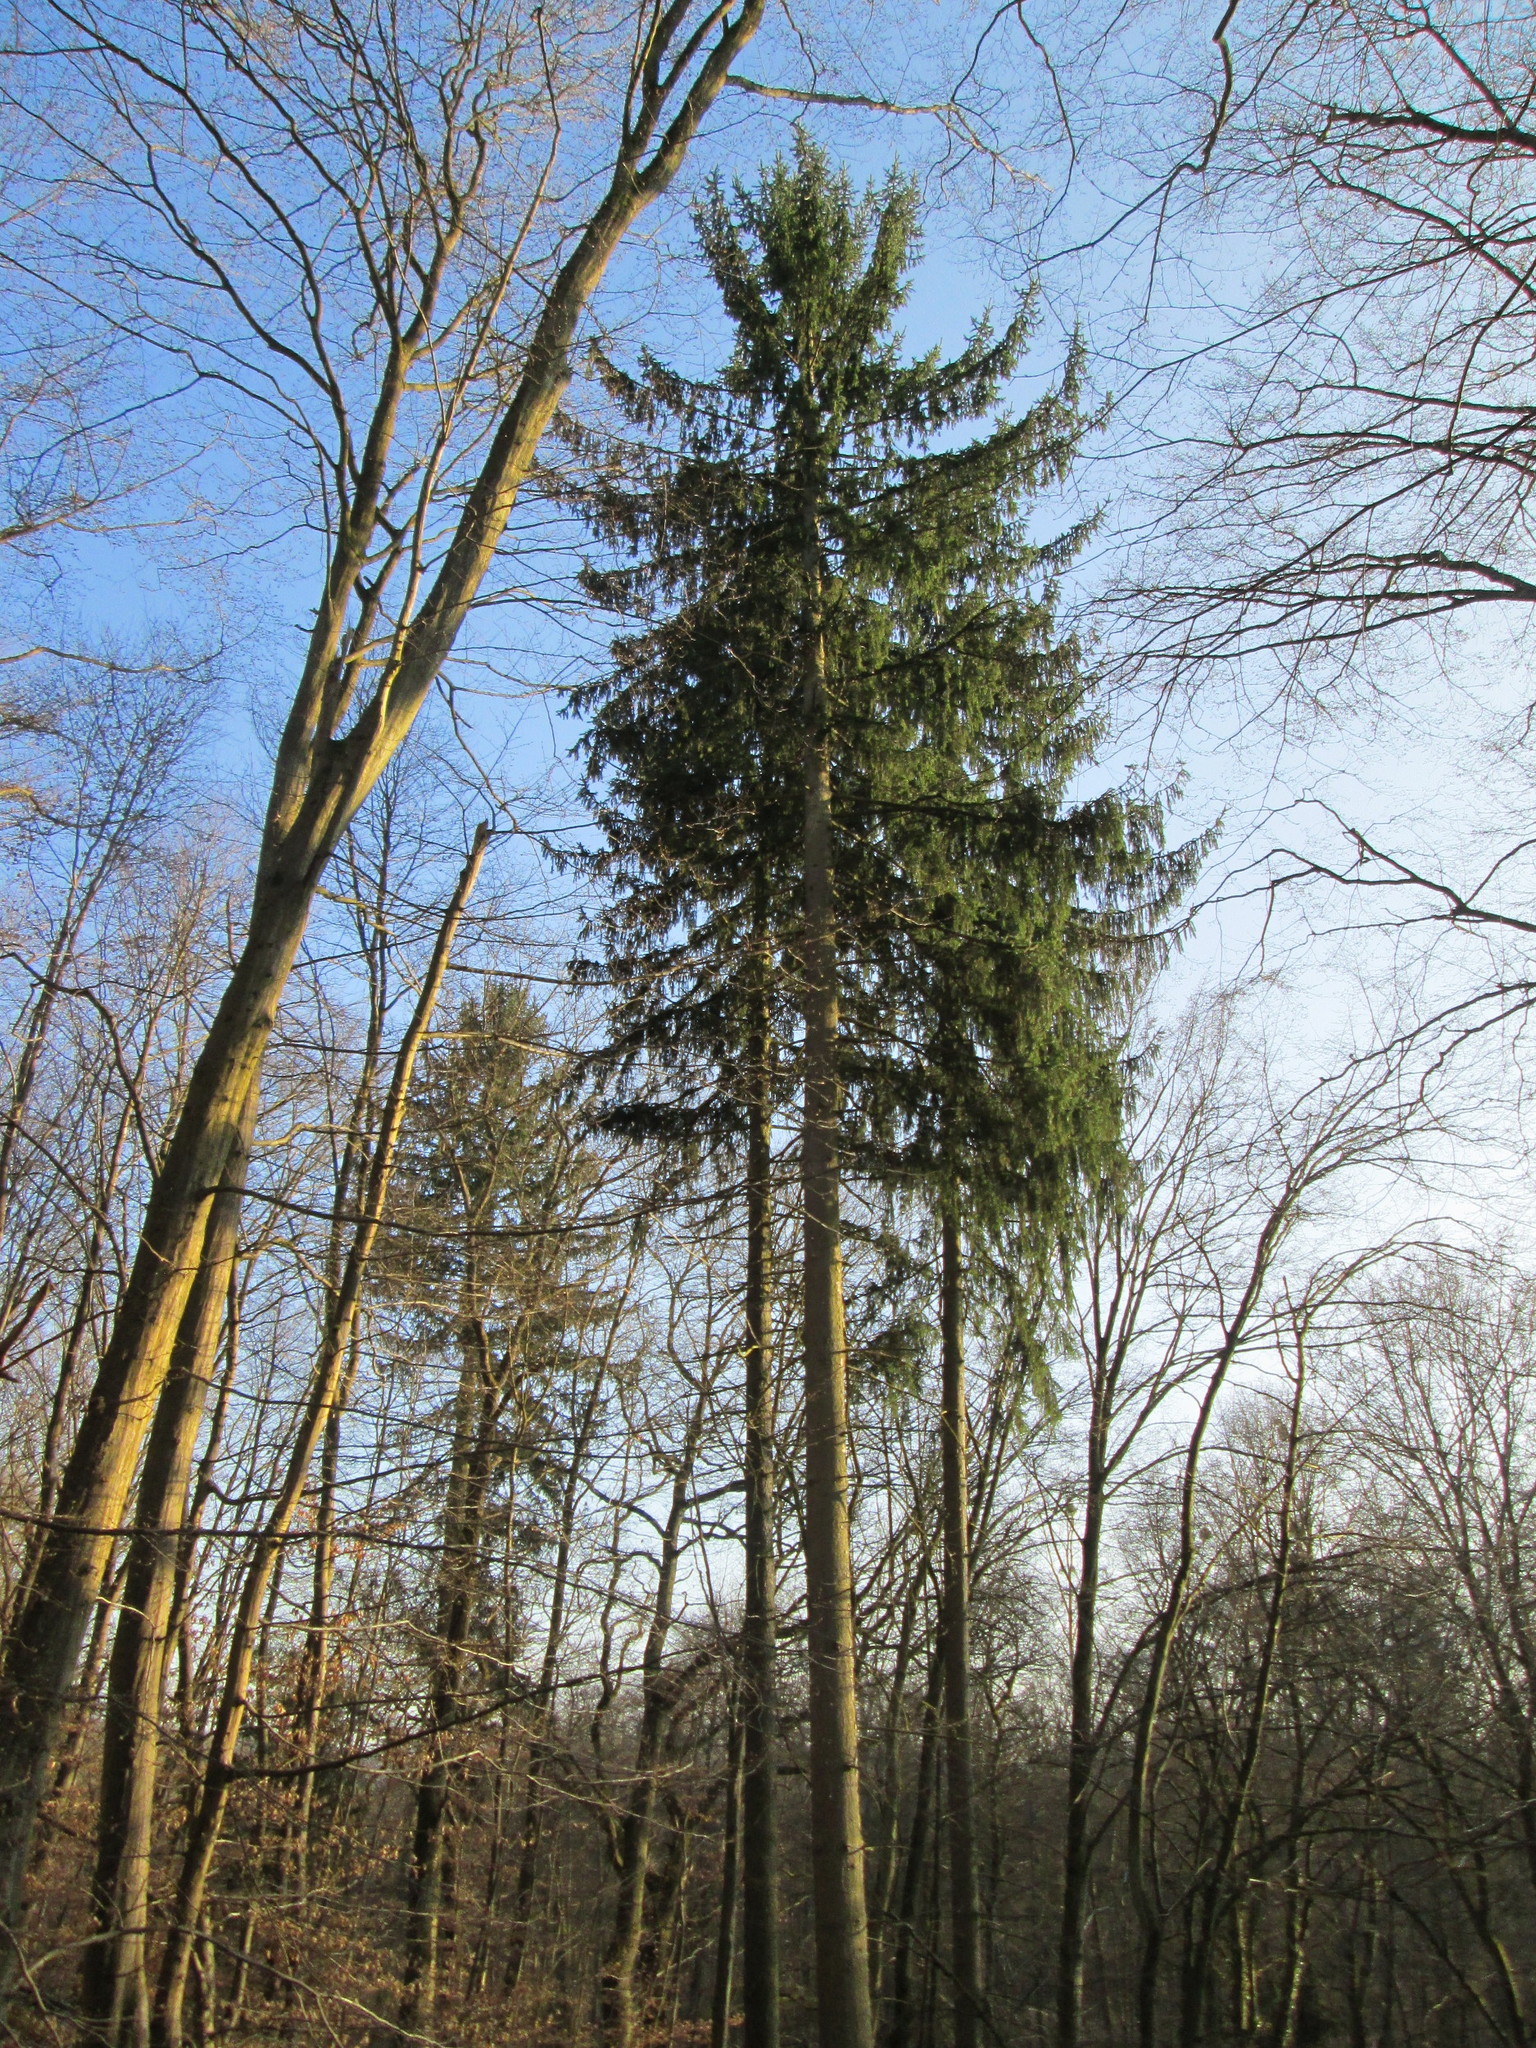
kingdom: Plantae
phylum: Tracheophyta
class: Pinopsida
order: Pinales
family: Pinaceae
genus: Picea
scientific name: Picea abies
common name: Norway spruce
